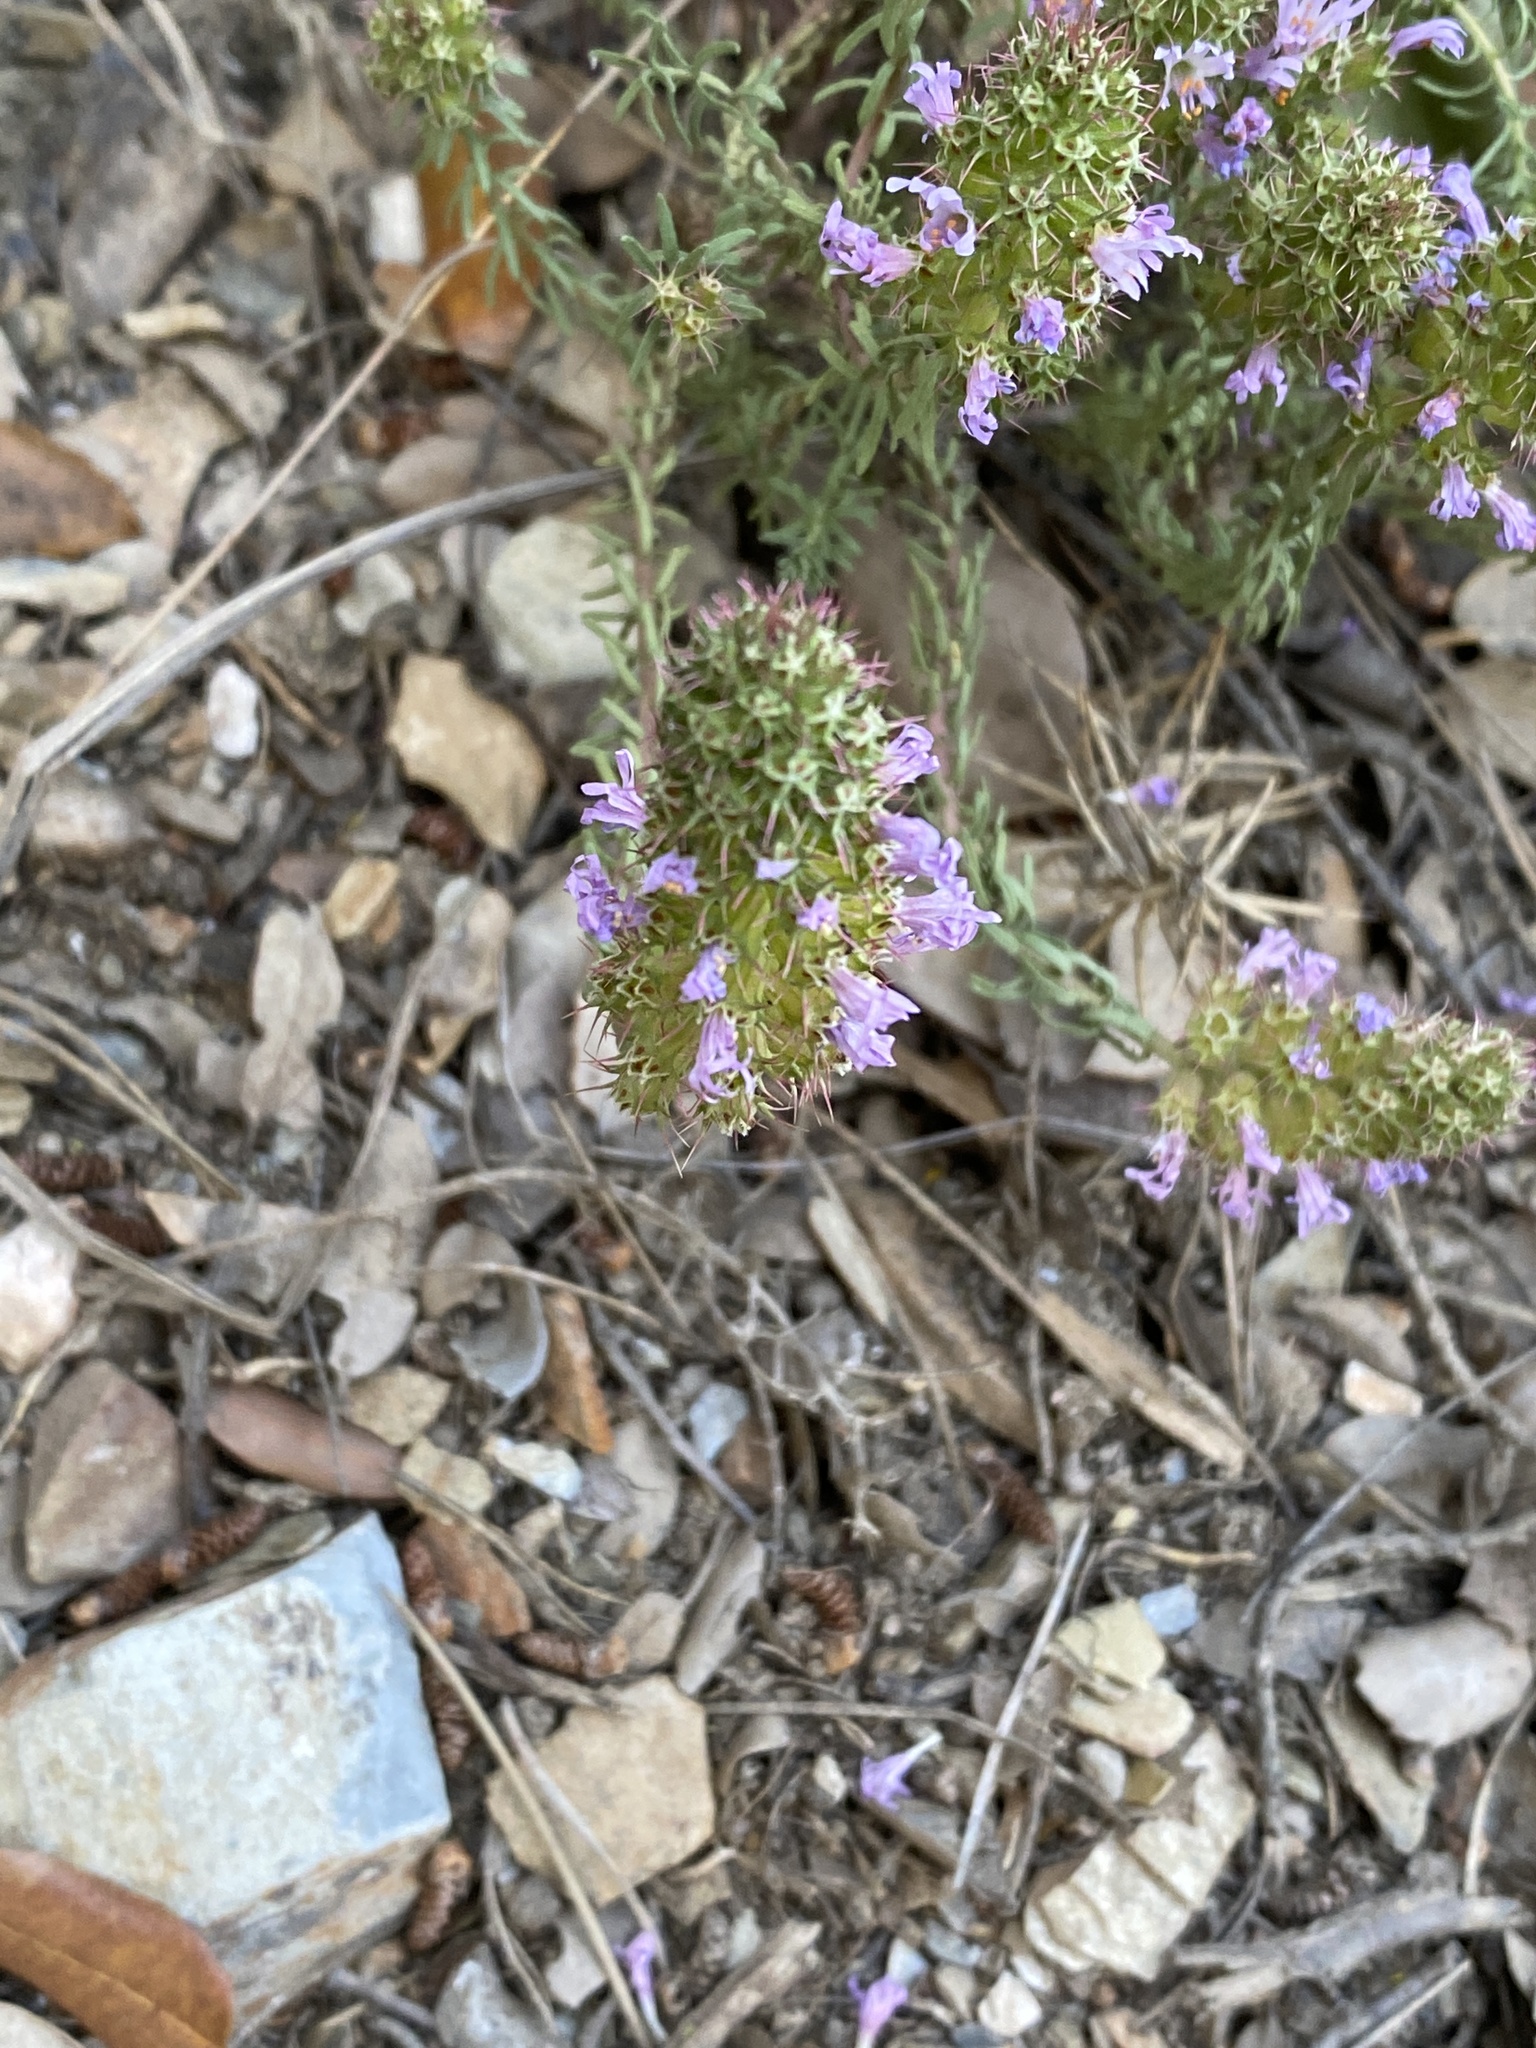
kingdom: Plantae
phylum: Tracheophyta
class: Magnoliopsida
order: Ericales
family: Primulaceae
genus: Coris
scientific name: Coris monspeliensis
